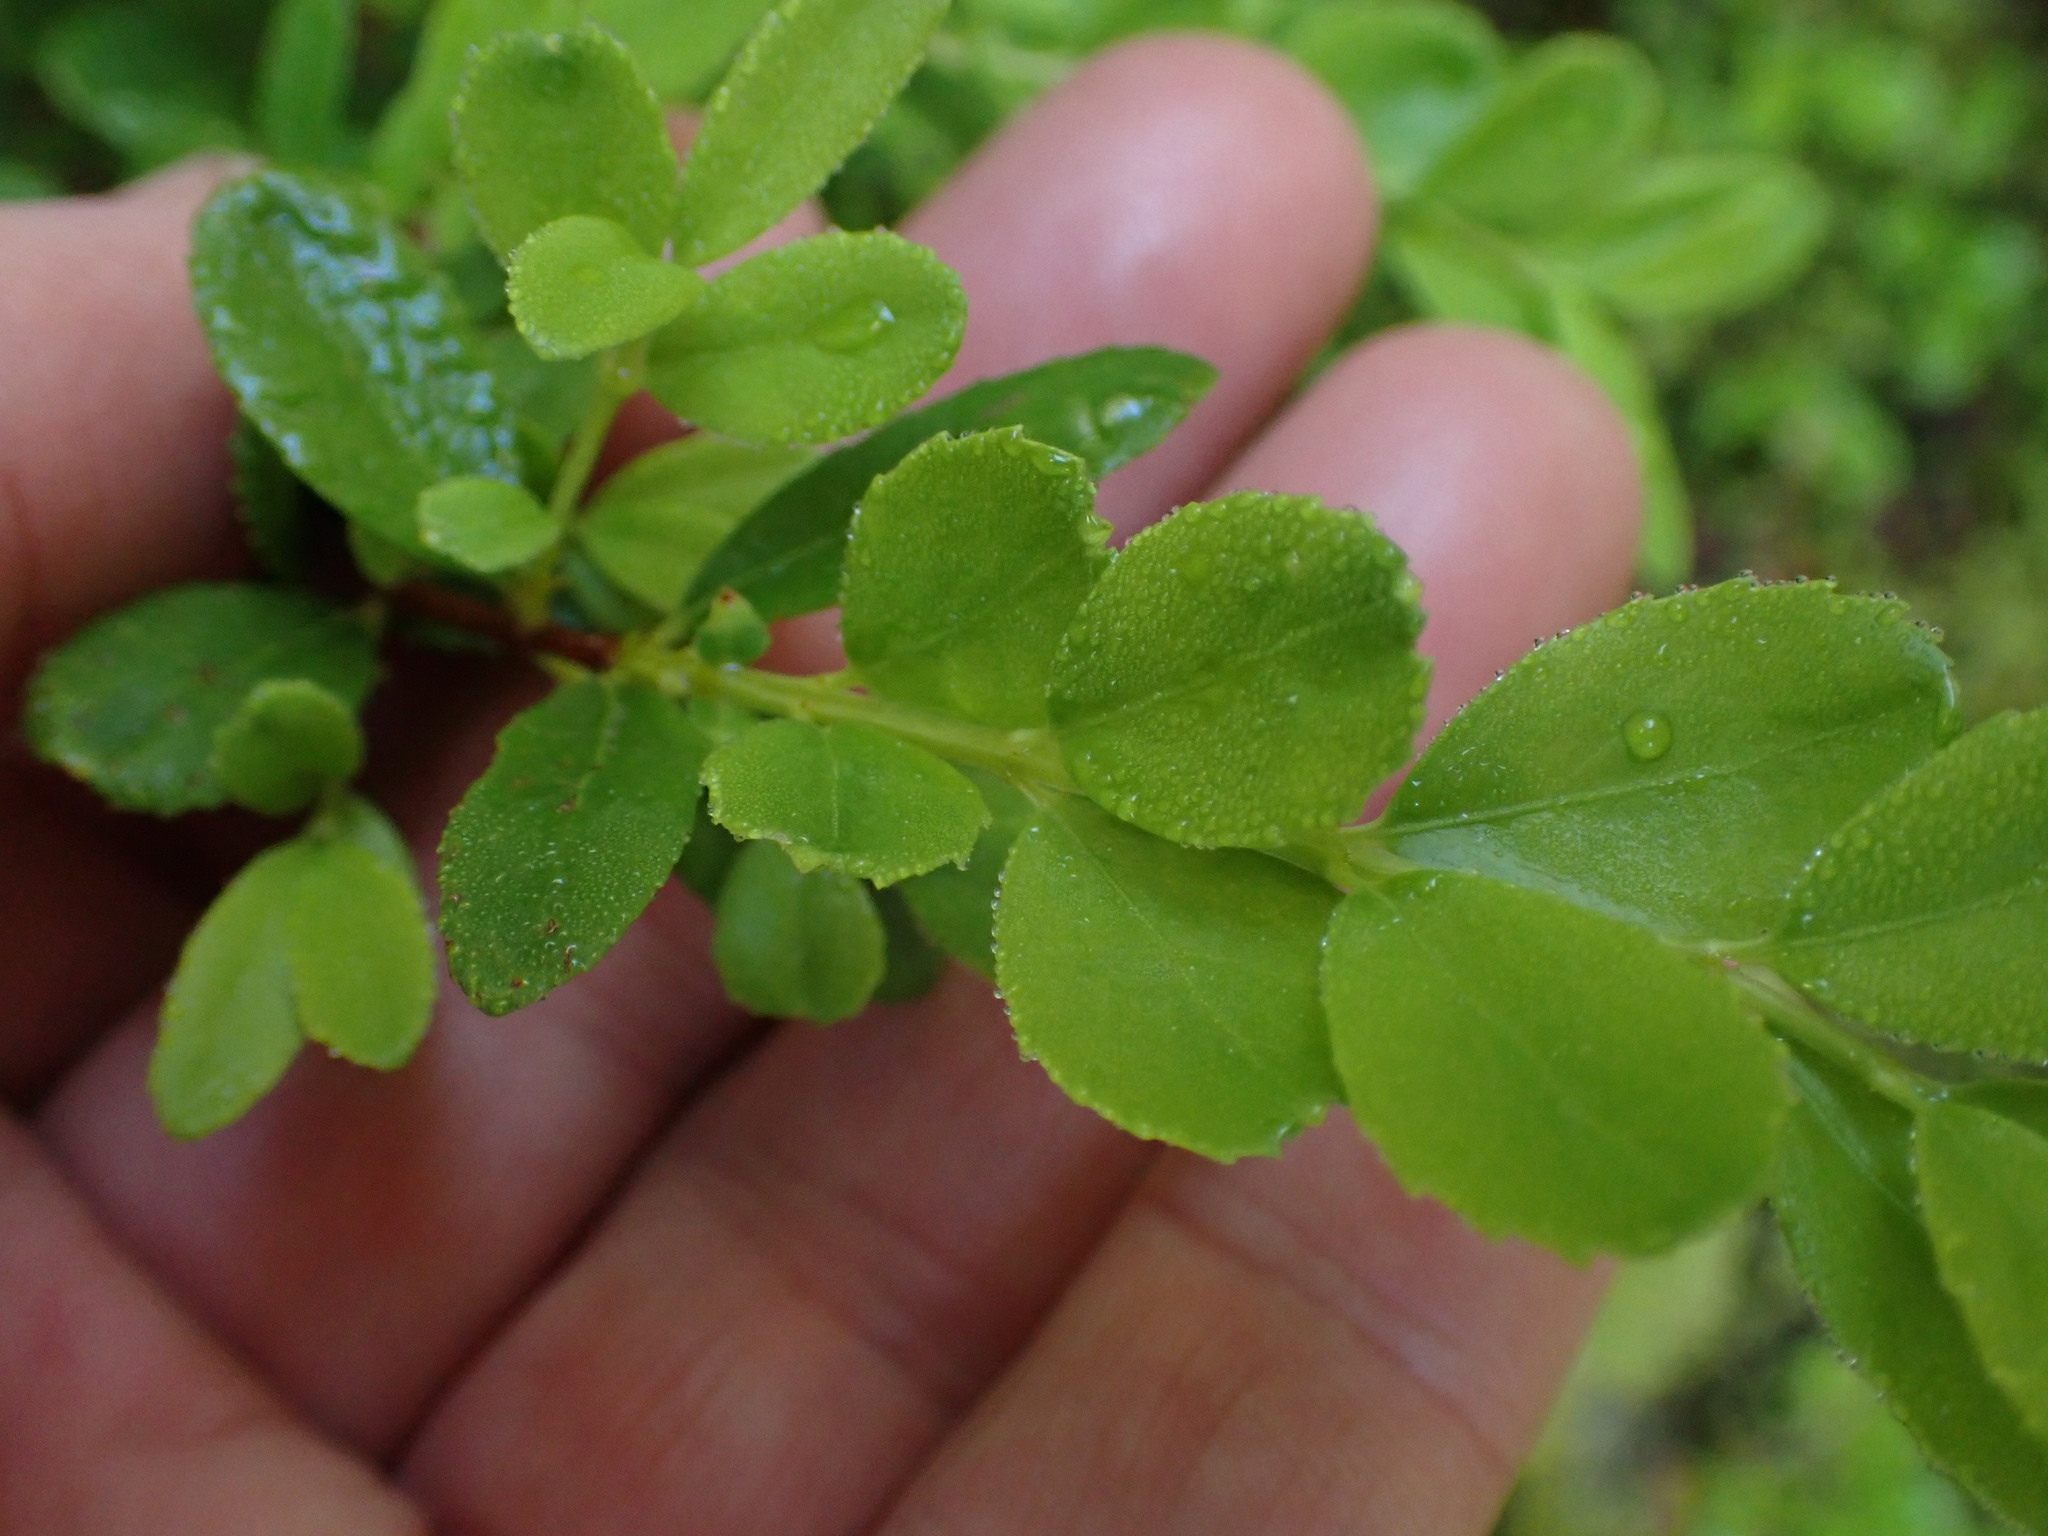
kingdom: Plantae
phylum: Tracheophyta
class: Magnoliopsida
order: Celastrales
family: Celastraceae
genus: Paxistima
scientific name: Paxistima myrsinites
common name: Mountain-lover
